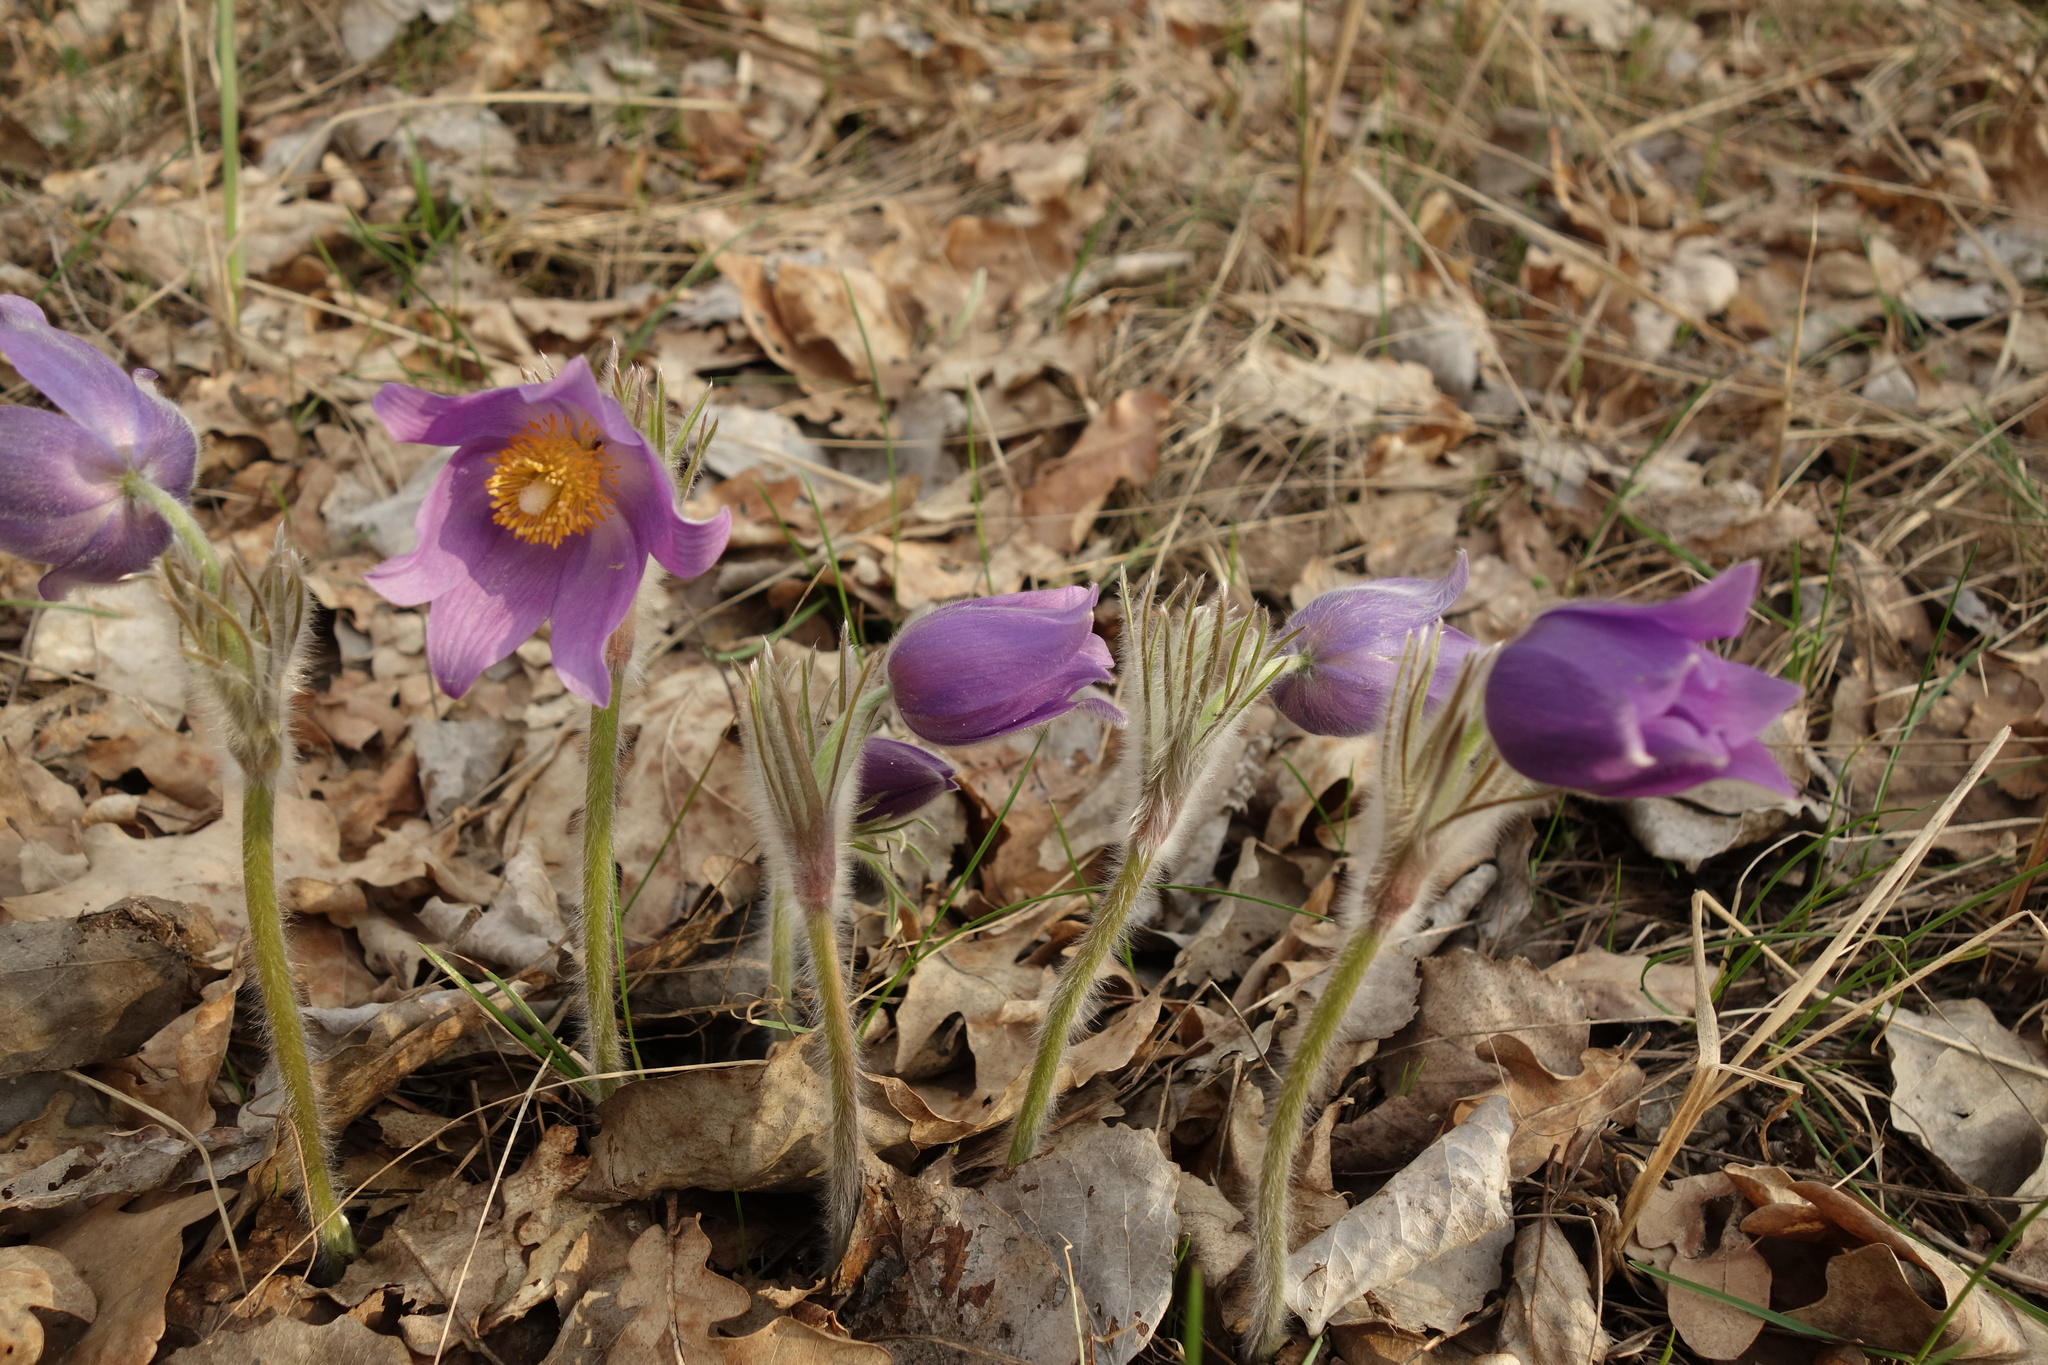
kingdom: Plantae
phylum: Tracheophyta
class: Magnoliopsida
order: Ranunculales
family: Ranunculaceae
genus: Pulsatilla
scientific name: Pulsatilla patens
